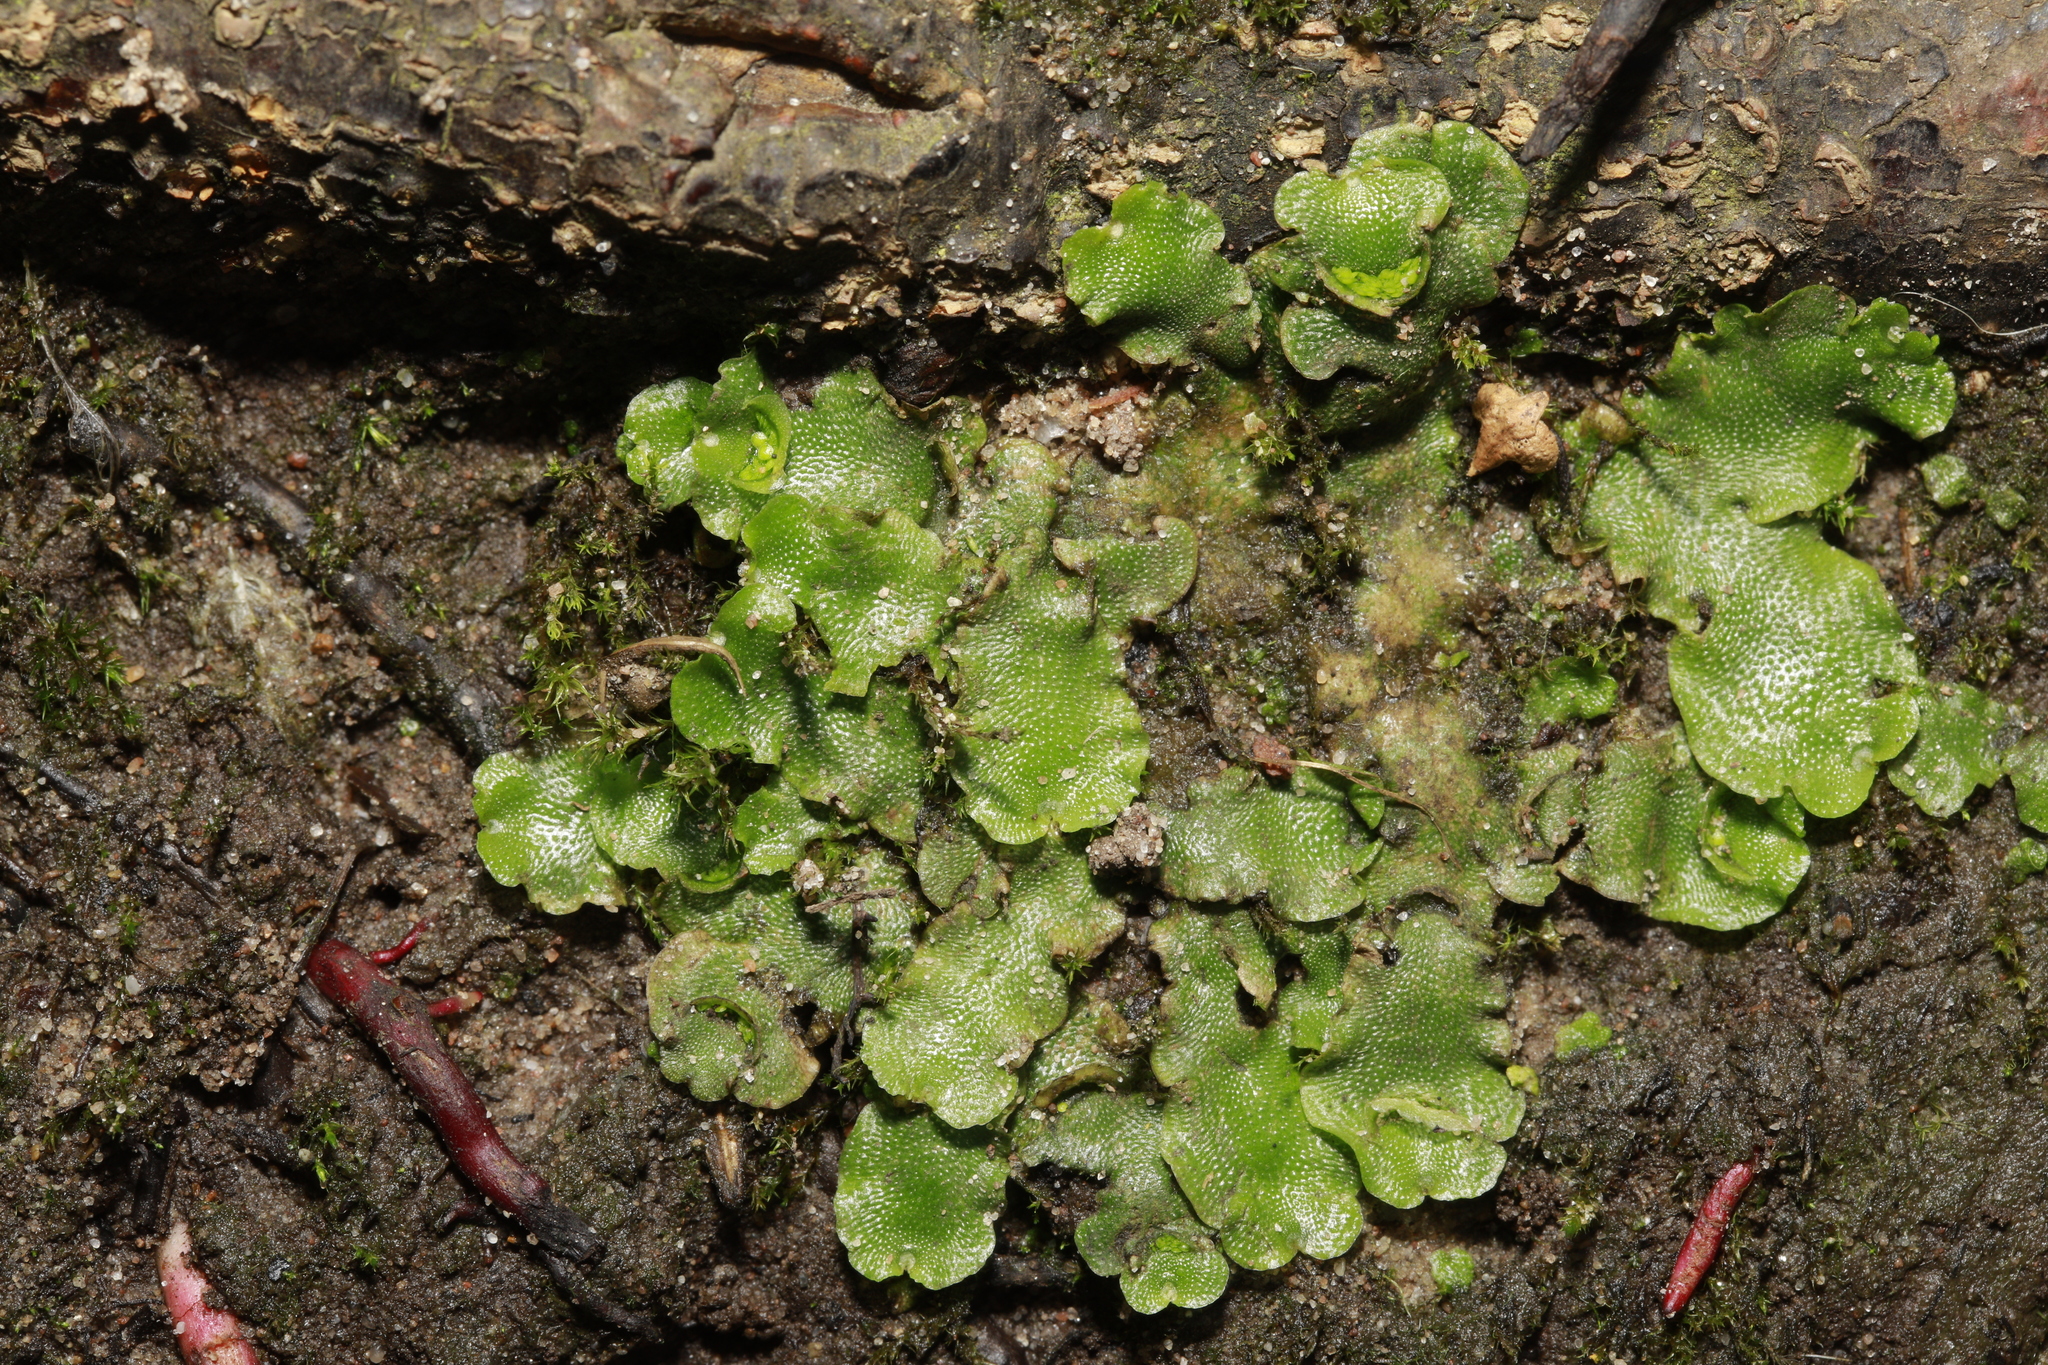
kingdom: Plantae
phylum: Marchantiophyta
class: Marchantiopsida
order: Lunulariales
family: Lunulariaceae
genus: Lunularia
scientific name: Lunularia cruciata
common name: Crescent-cup liverwort
